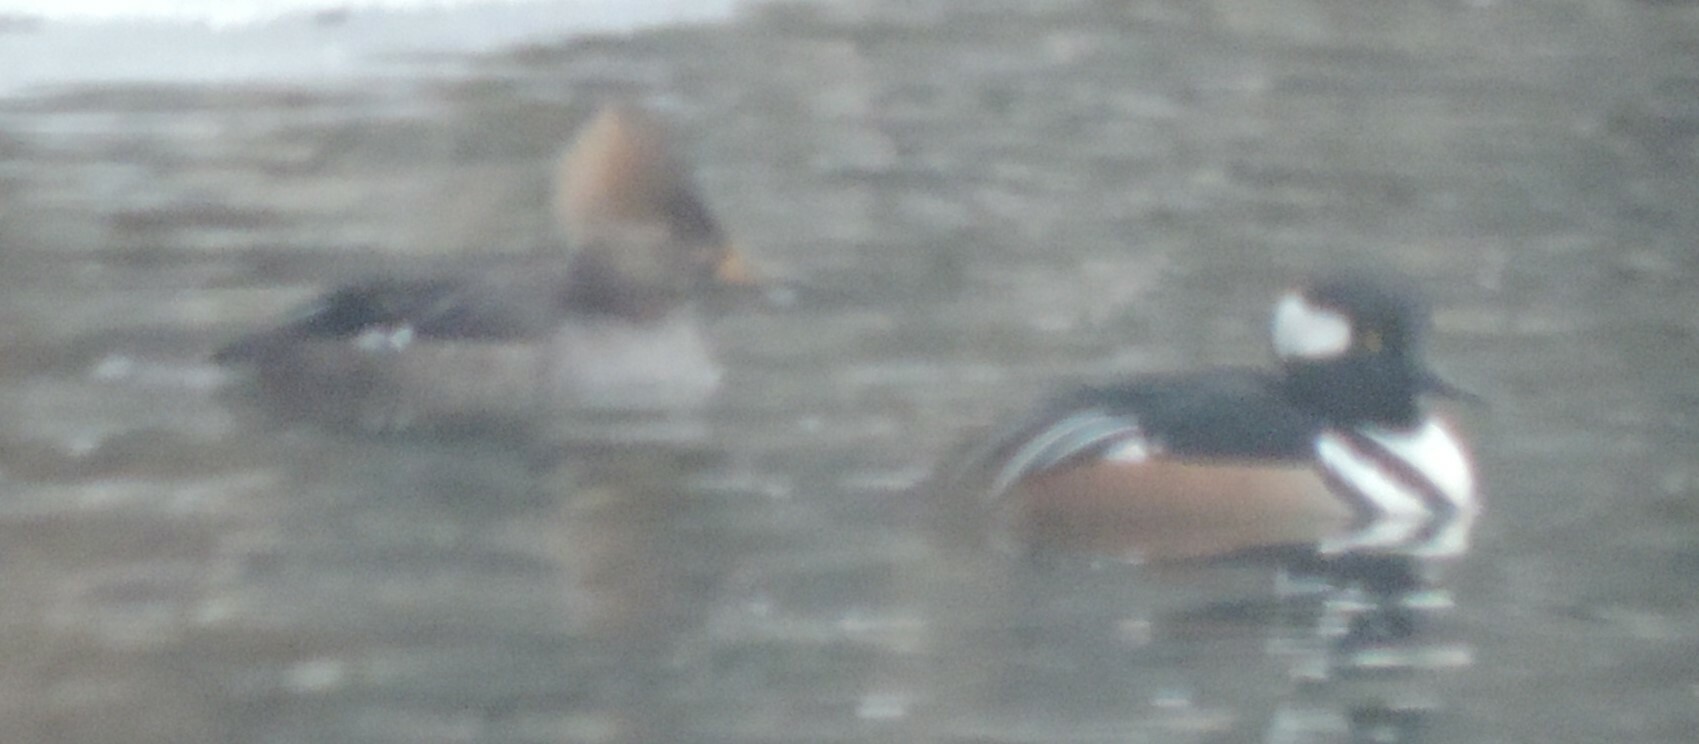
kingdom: Animalia
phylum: Chordata
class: Aves
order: Anseriformes
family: Anatidae
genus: Lophodytes
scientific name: Lophodytes cucullatus
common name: Hooded merganser
